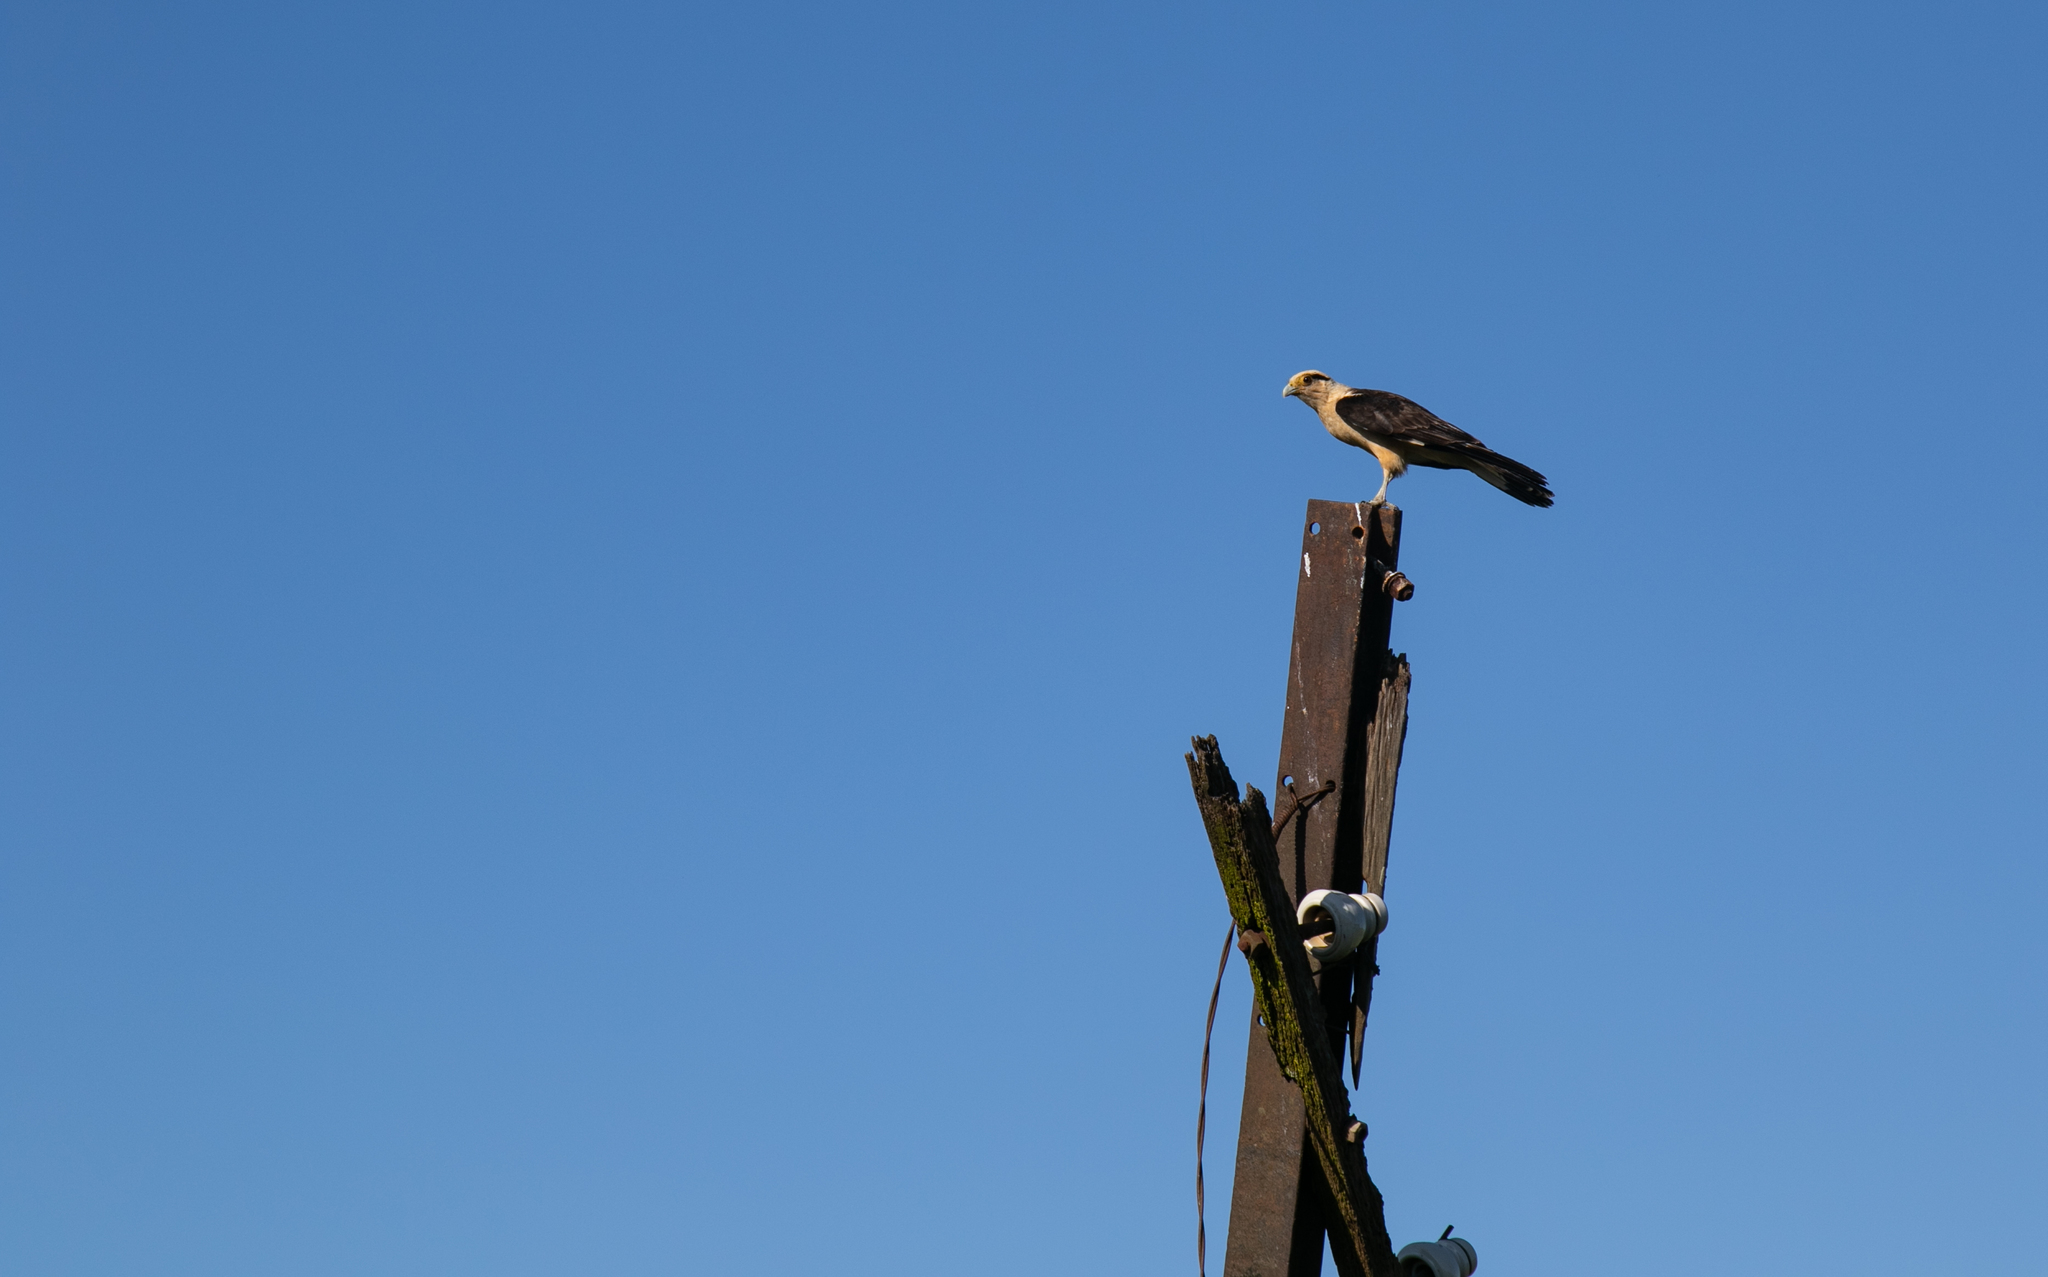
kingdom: Animalia
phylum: Chordata
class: Aves
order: Falconiformes
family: Falconidae
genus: Daptrius
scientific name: Daptrius
